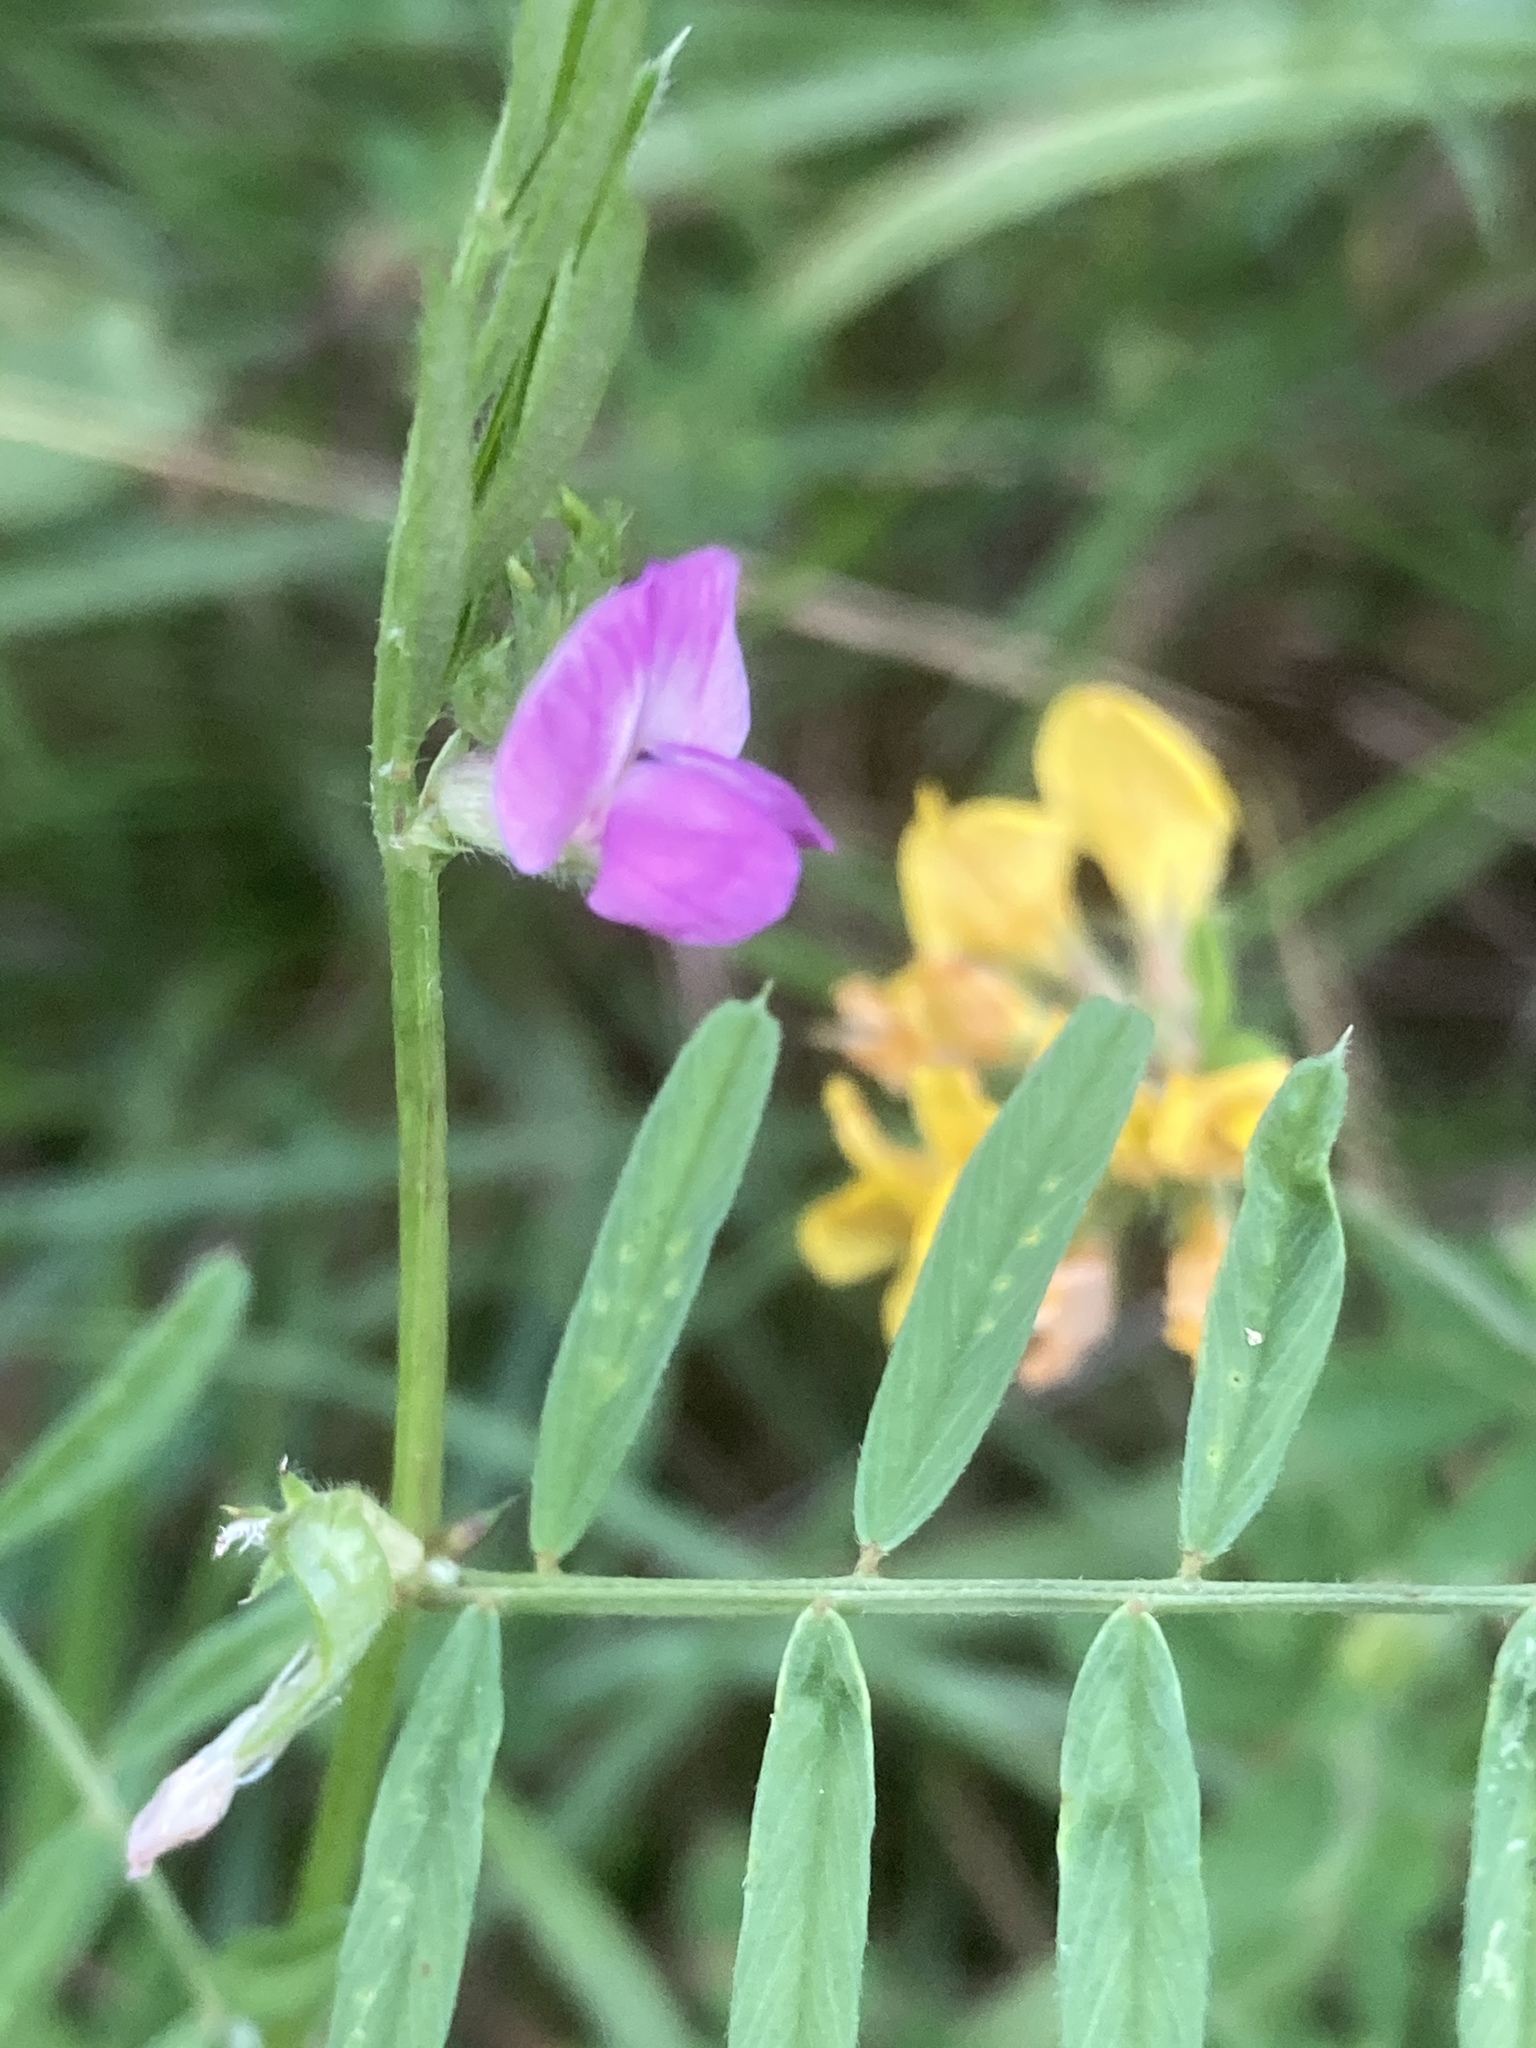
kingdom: Plantae
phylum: Tracheophyta
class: Magnoliopsida
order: Fabales
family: Fabaceae
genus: Vicia
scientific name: Vicia sativa
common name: Garden vetch
